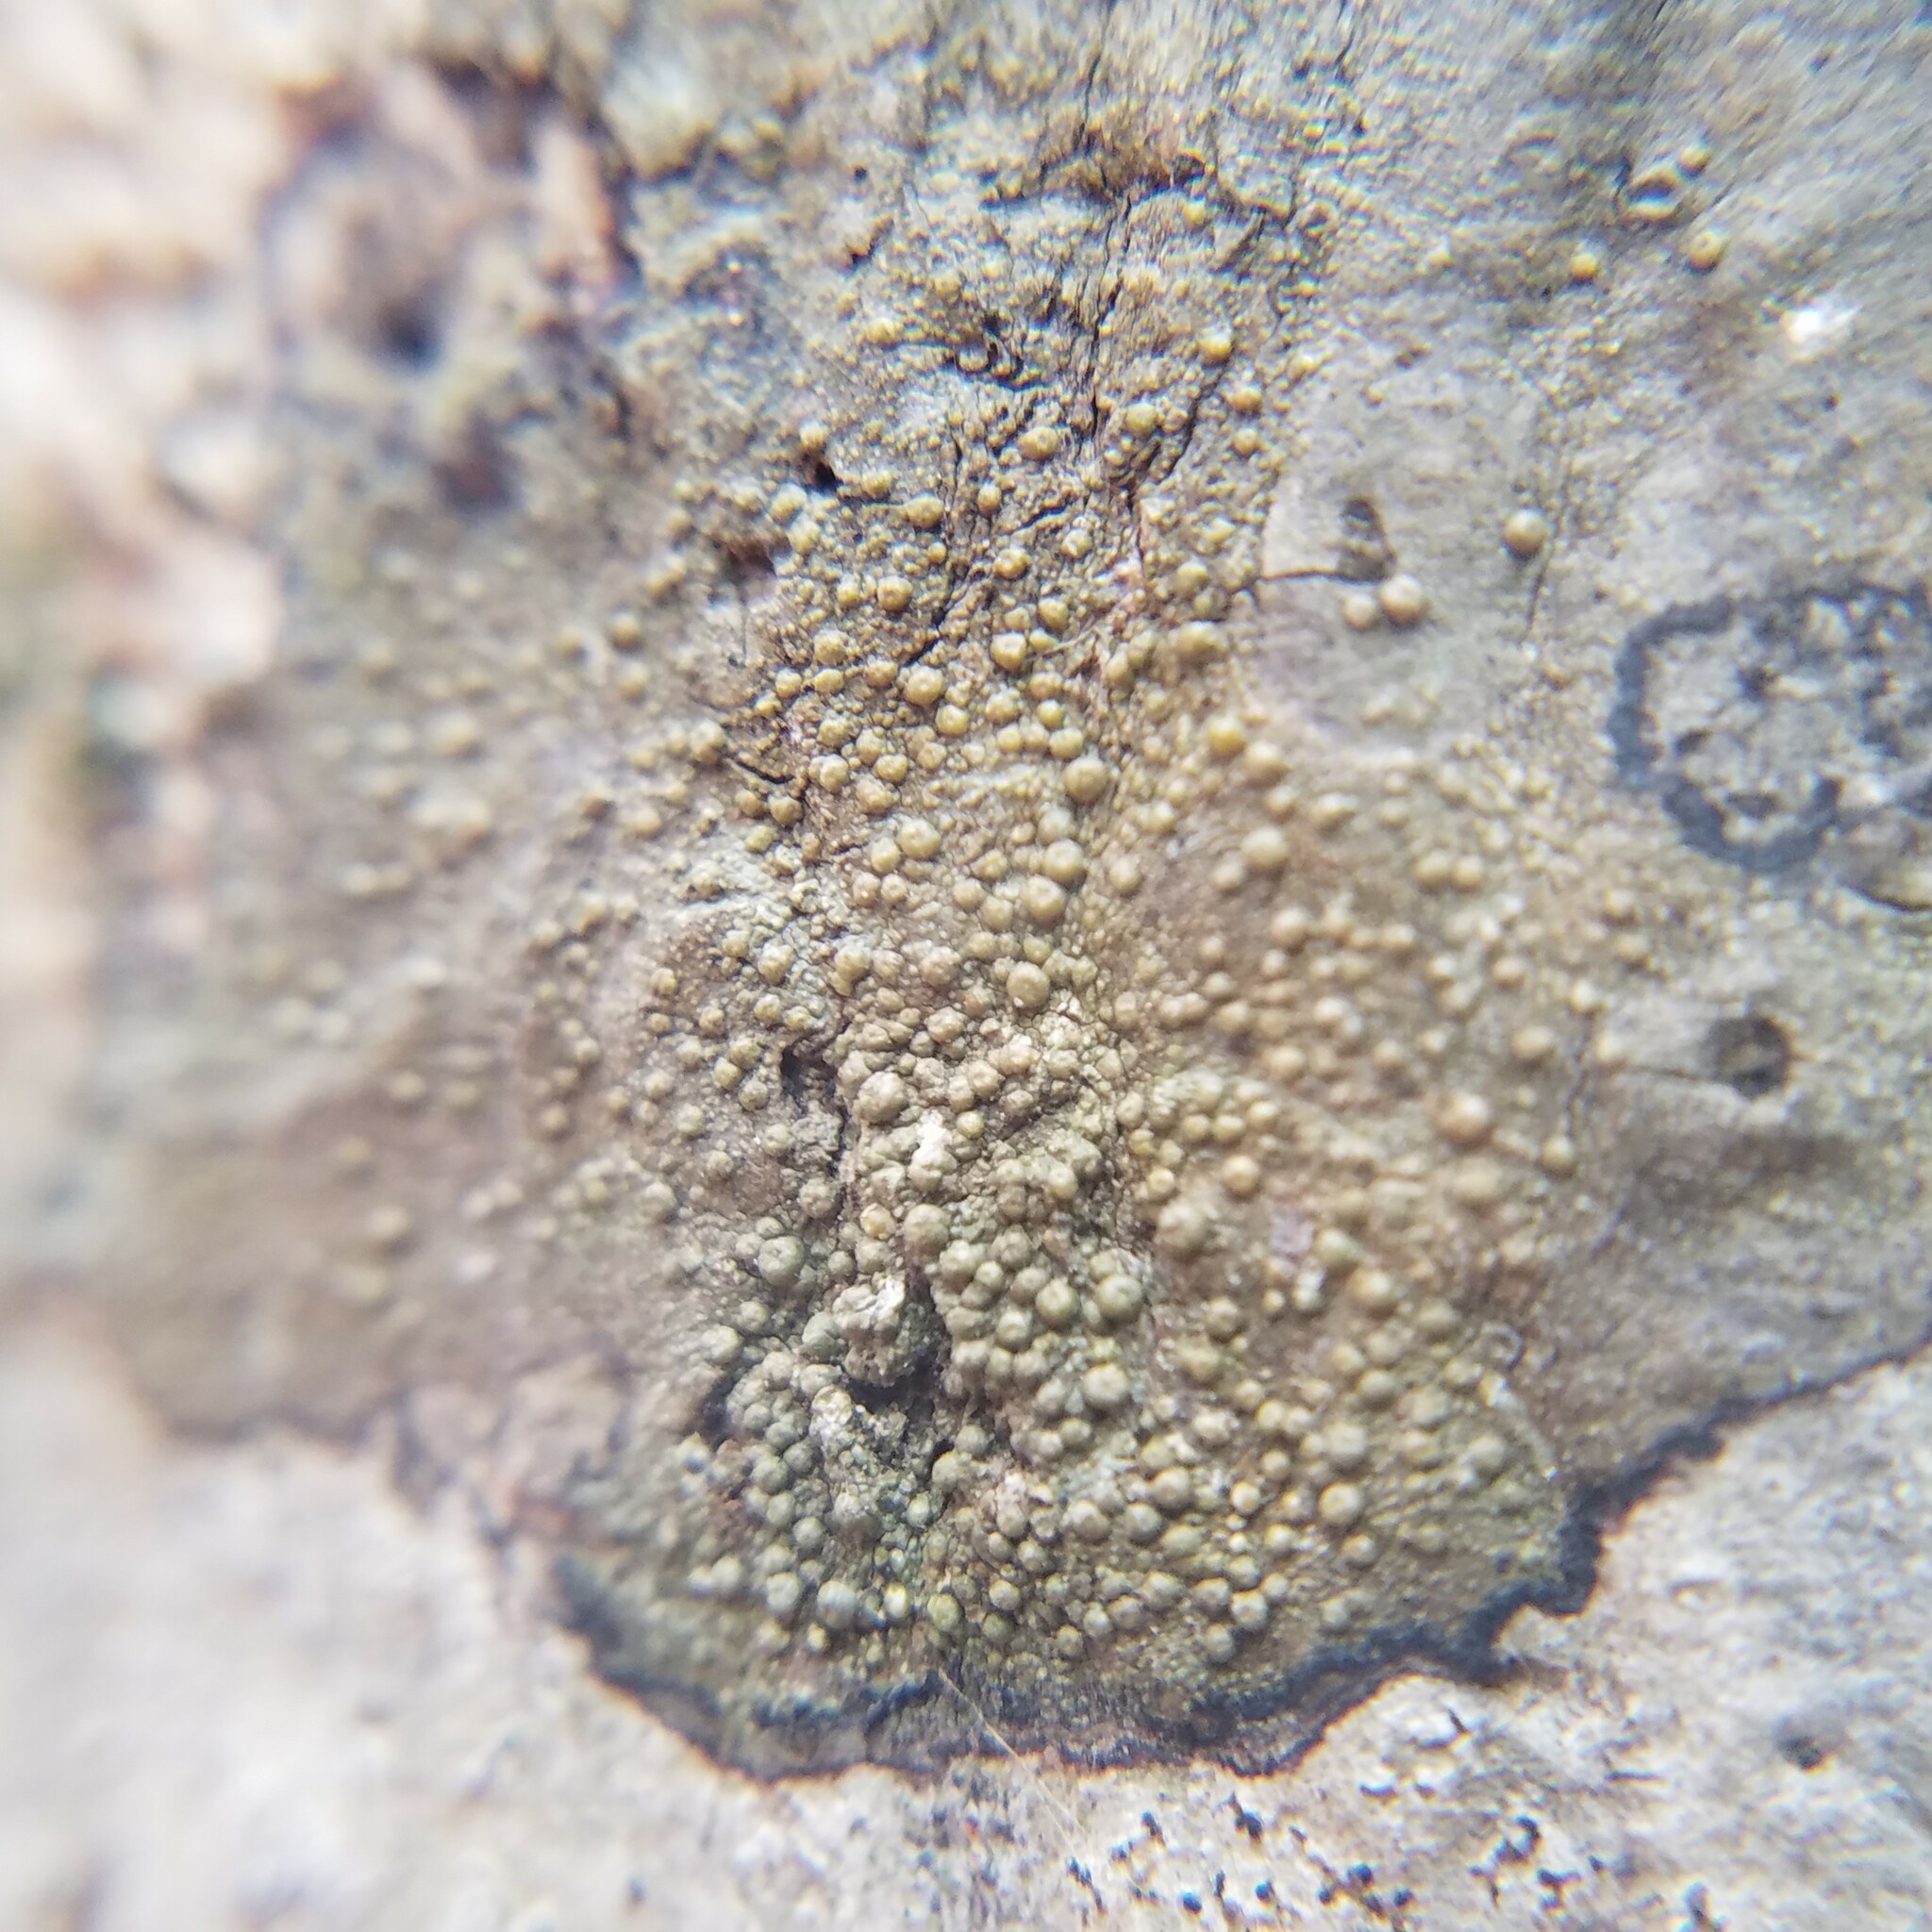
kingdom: Fungi
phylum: Ascomycota
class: Lecanoromycetes
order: Pertusariales
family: Pertusariaceae
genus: Porina
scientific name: Porina heterospora
